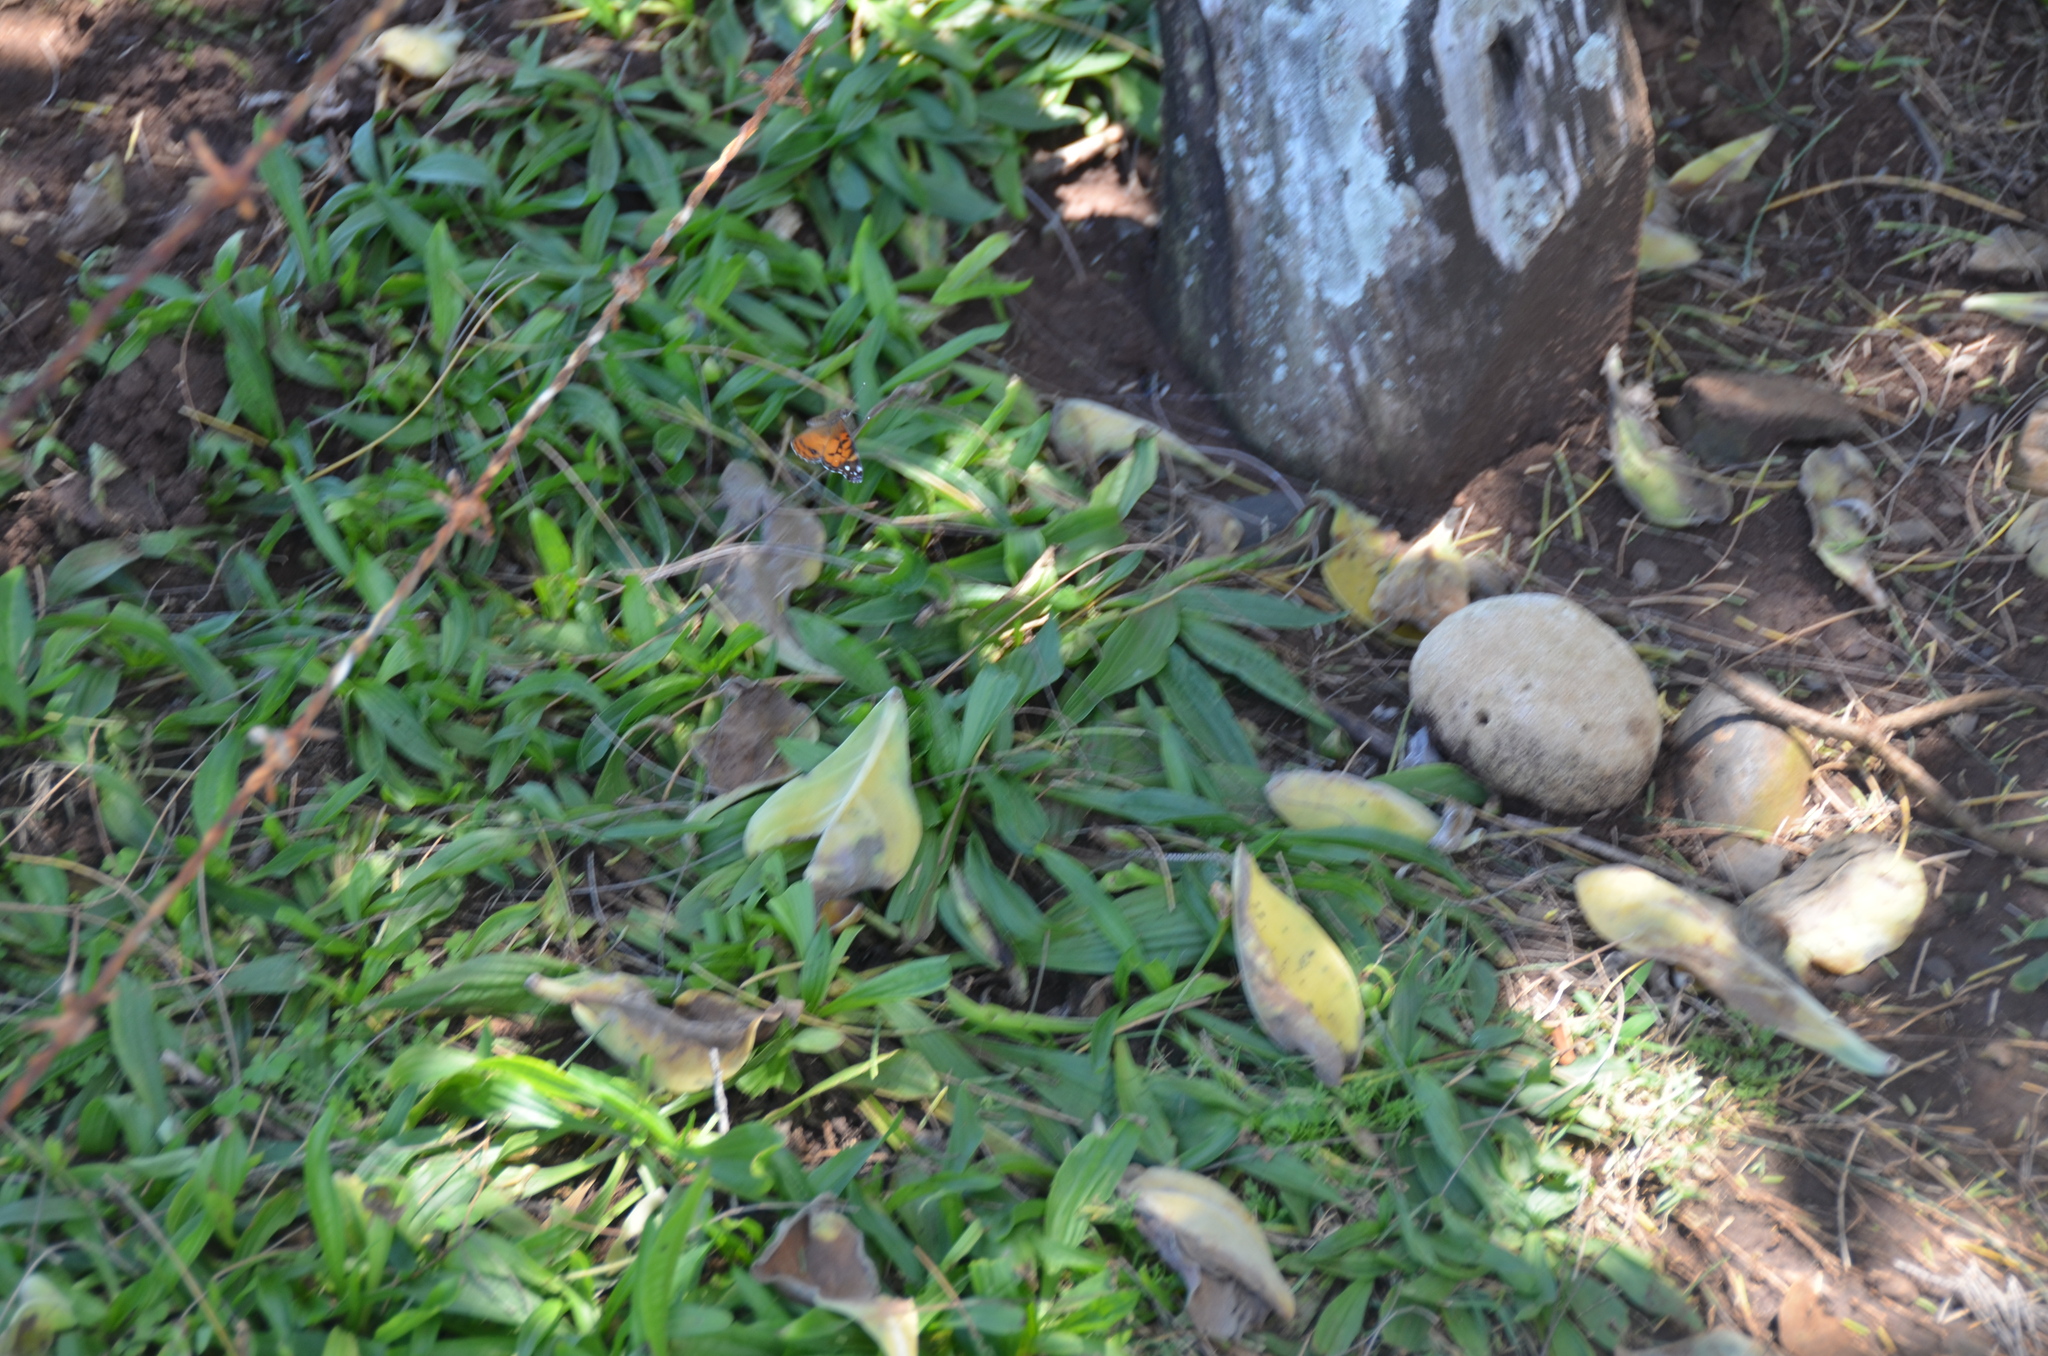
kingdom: Animalia
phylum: Arthropoda
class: Insecta
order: Lepidoptera
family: Nymphalidae
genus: Vanessa
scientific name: Vanessa virginiensis
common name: American lady
